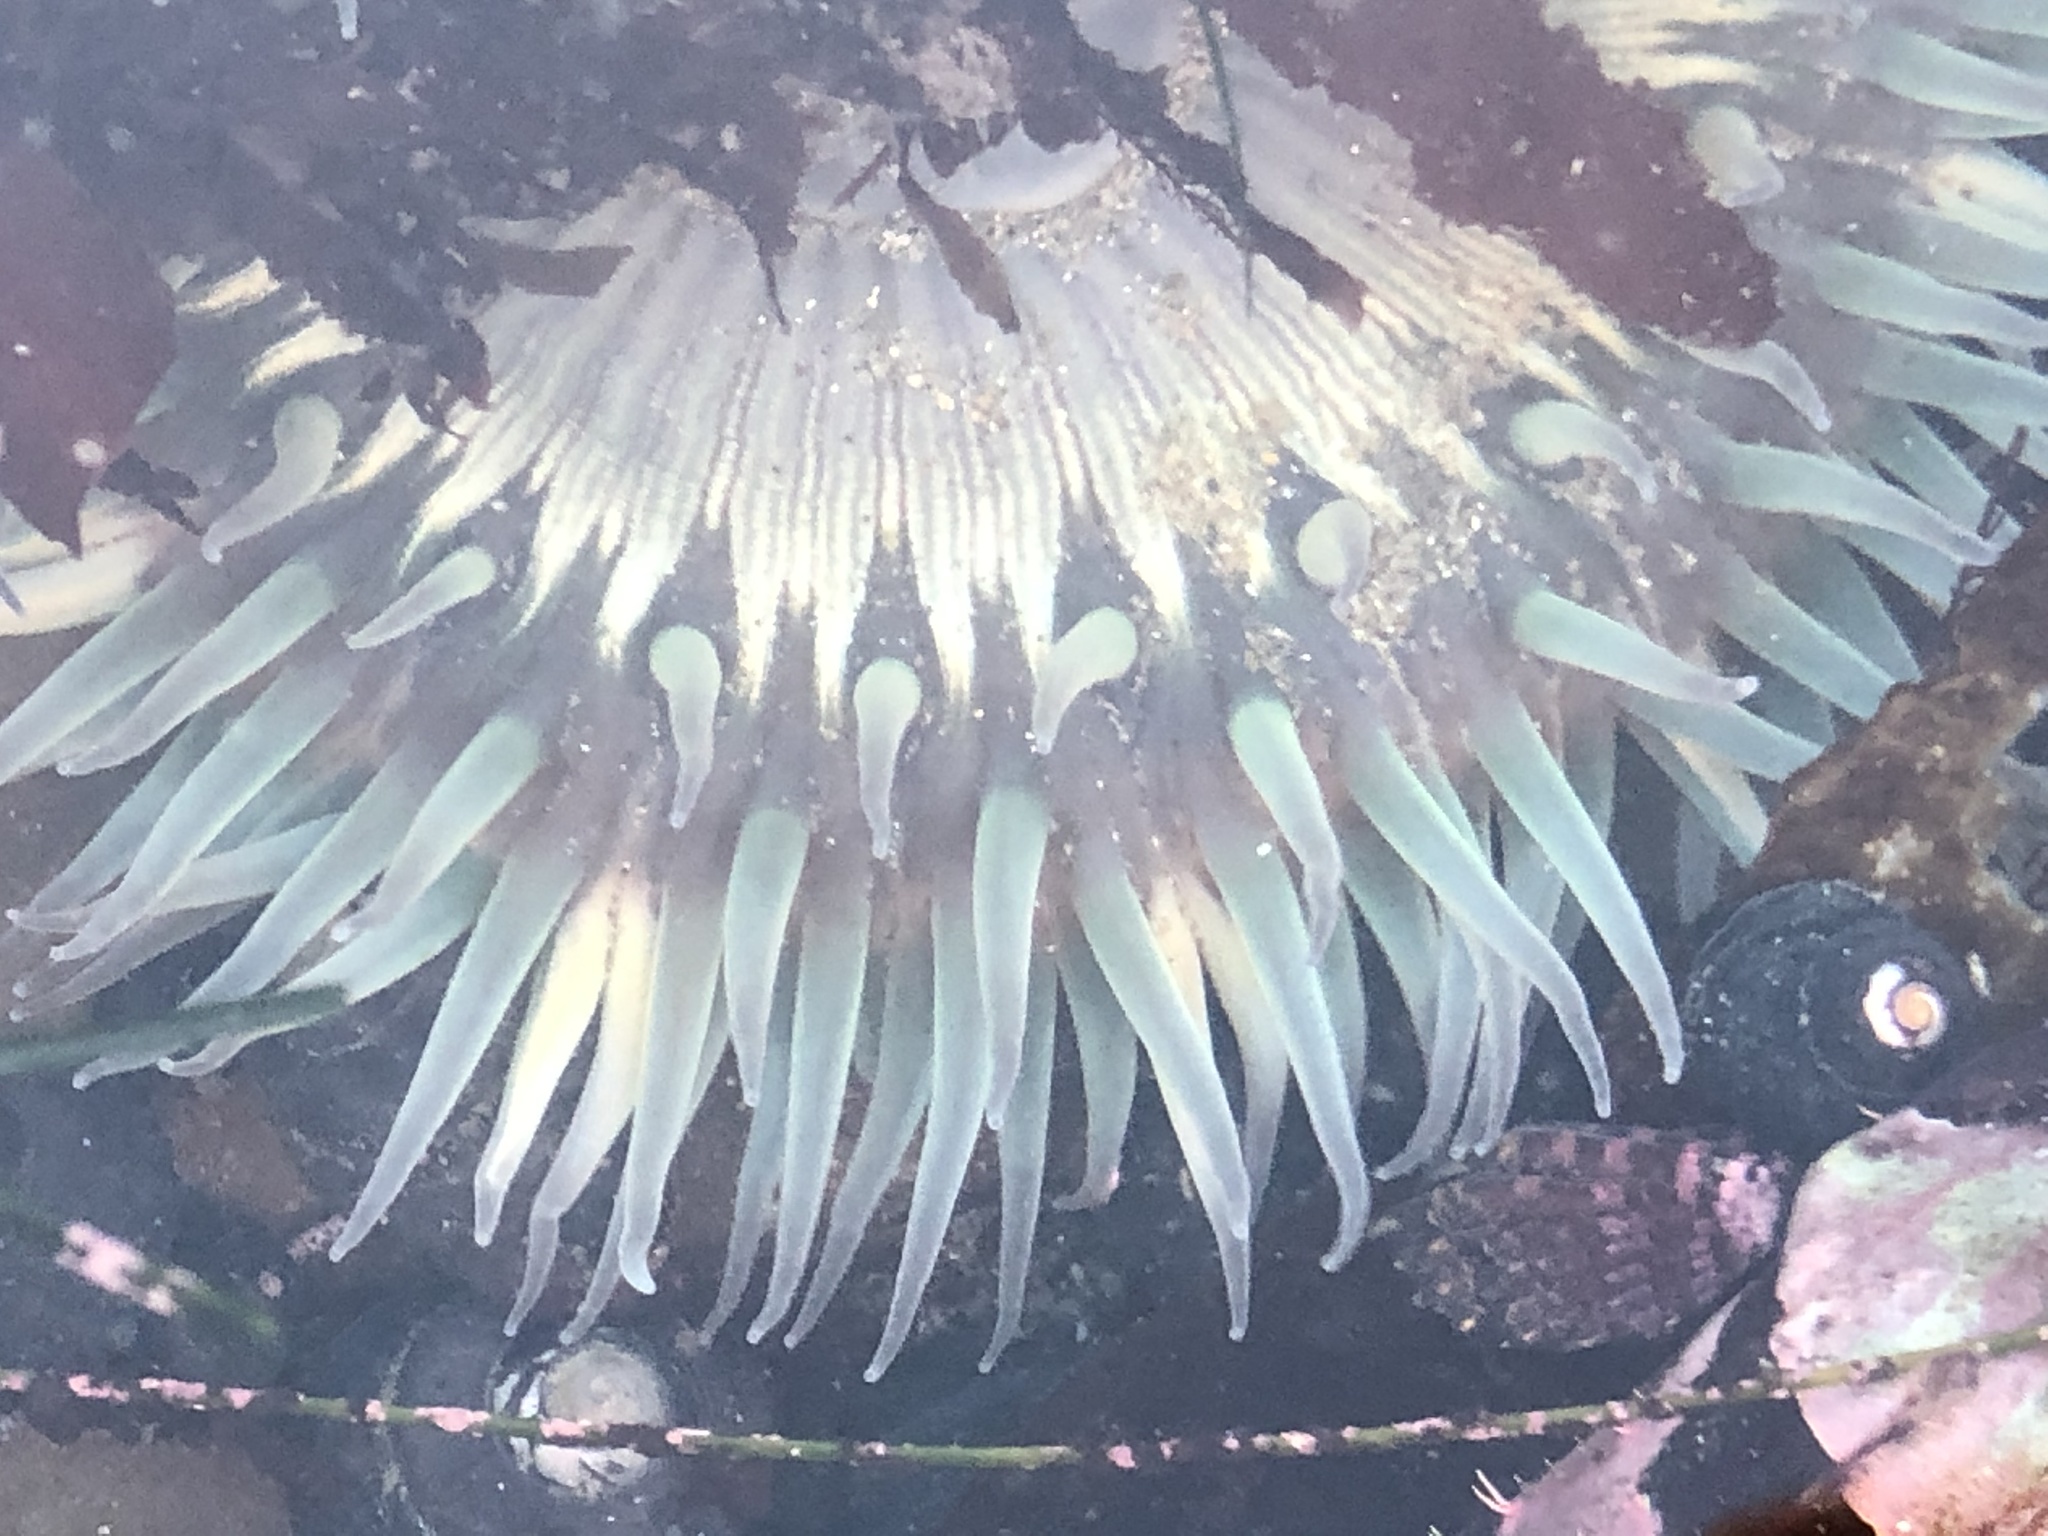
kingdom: Animalia
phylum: Cnidaria
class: Anthozoa
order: Actiniaria
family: Actiniidae
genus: Anthopleura
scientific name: Anthopleura sola
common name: Sun anemone
